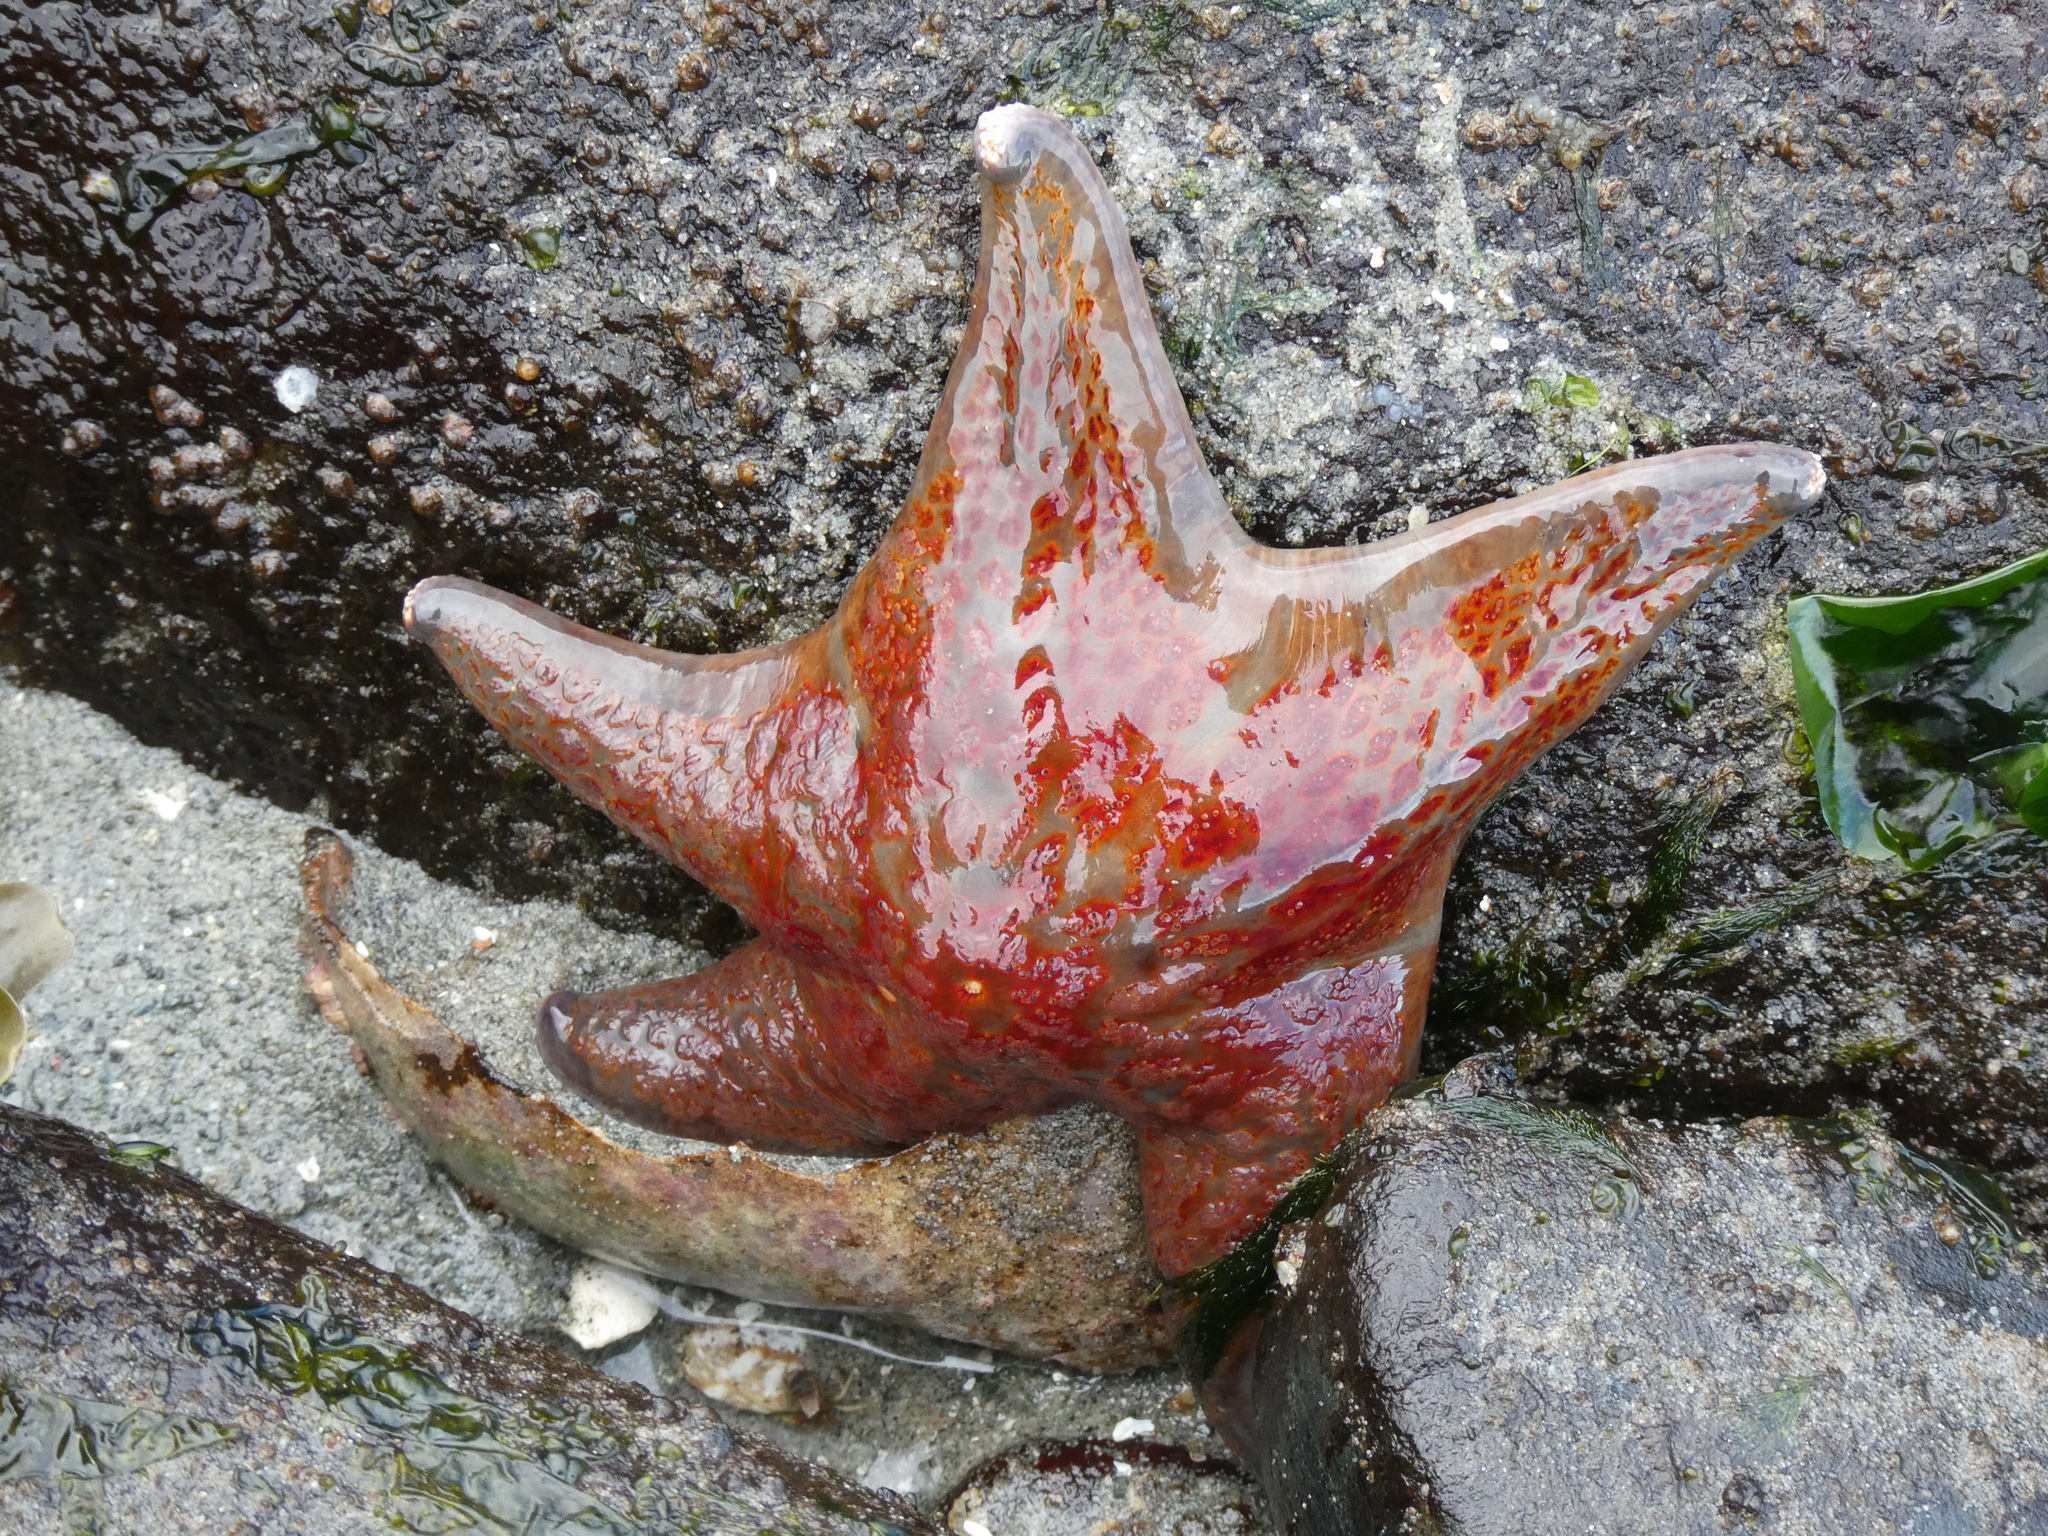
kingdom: Animalia
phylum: Echinodermata
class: Asteroidea
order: Valvatida
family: Asteropseidae
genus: Dermasterias
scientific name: Dermasterias imbricata
